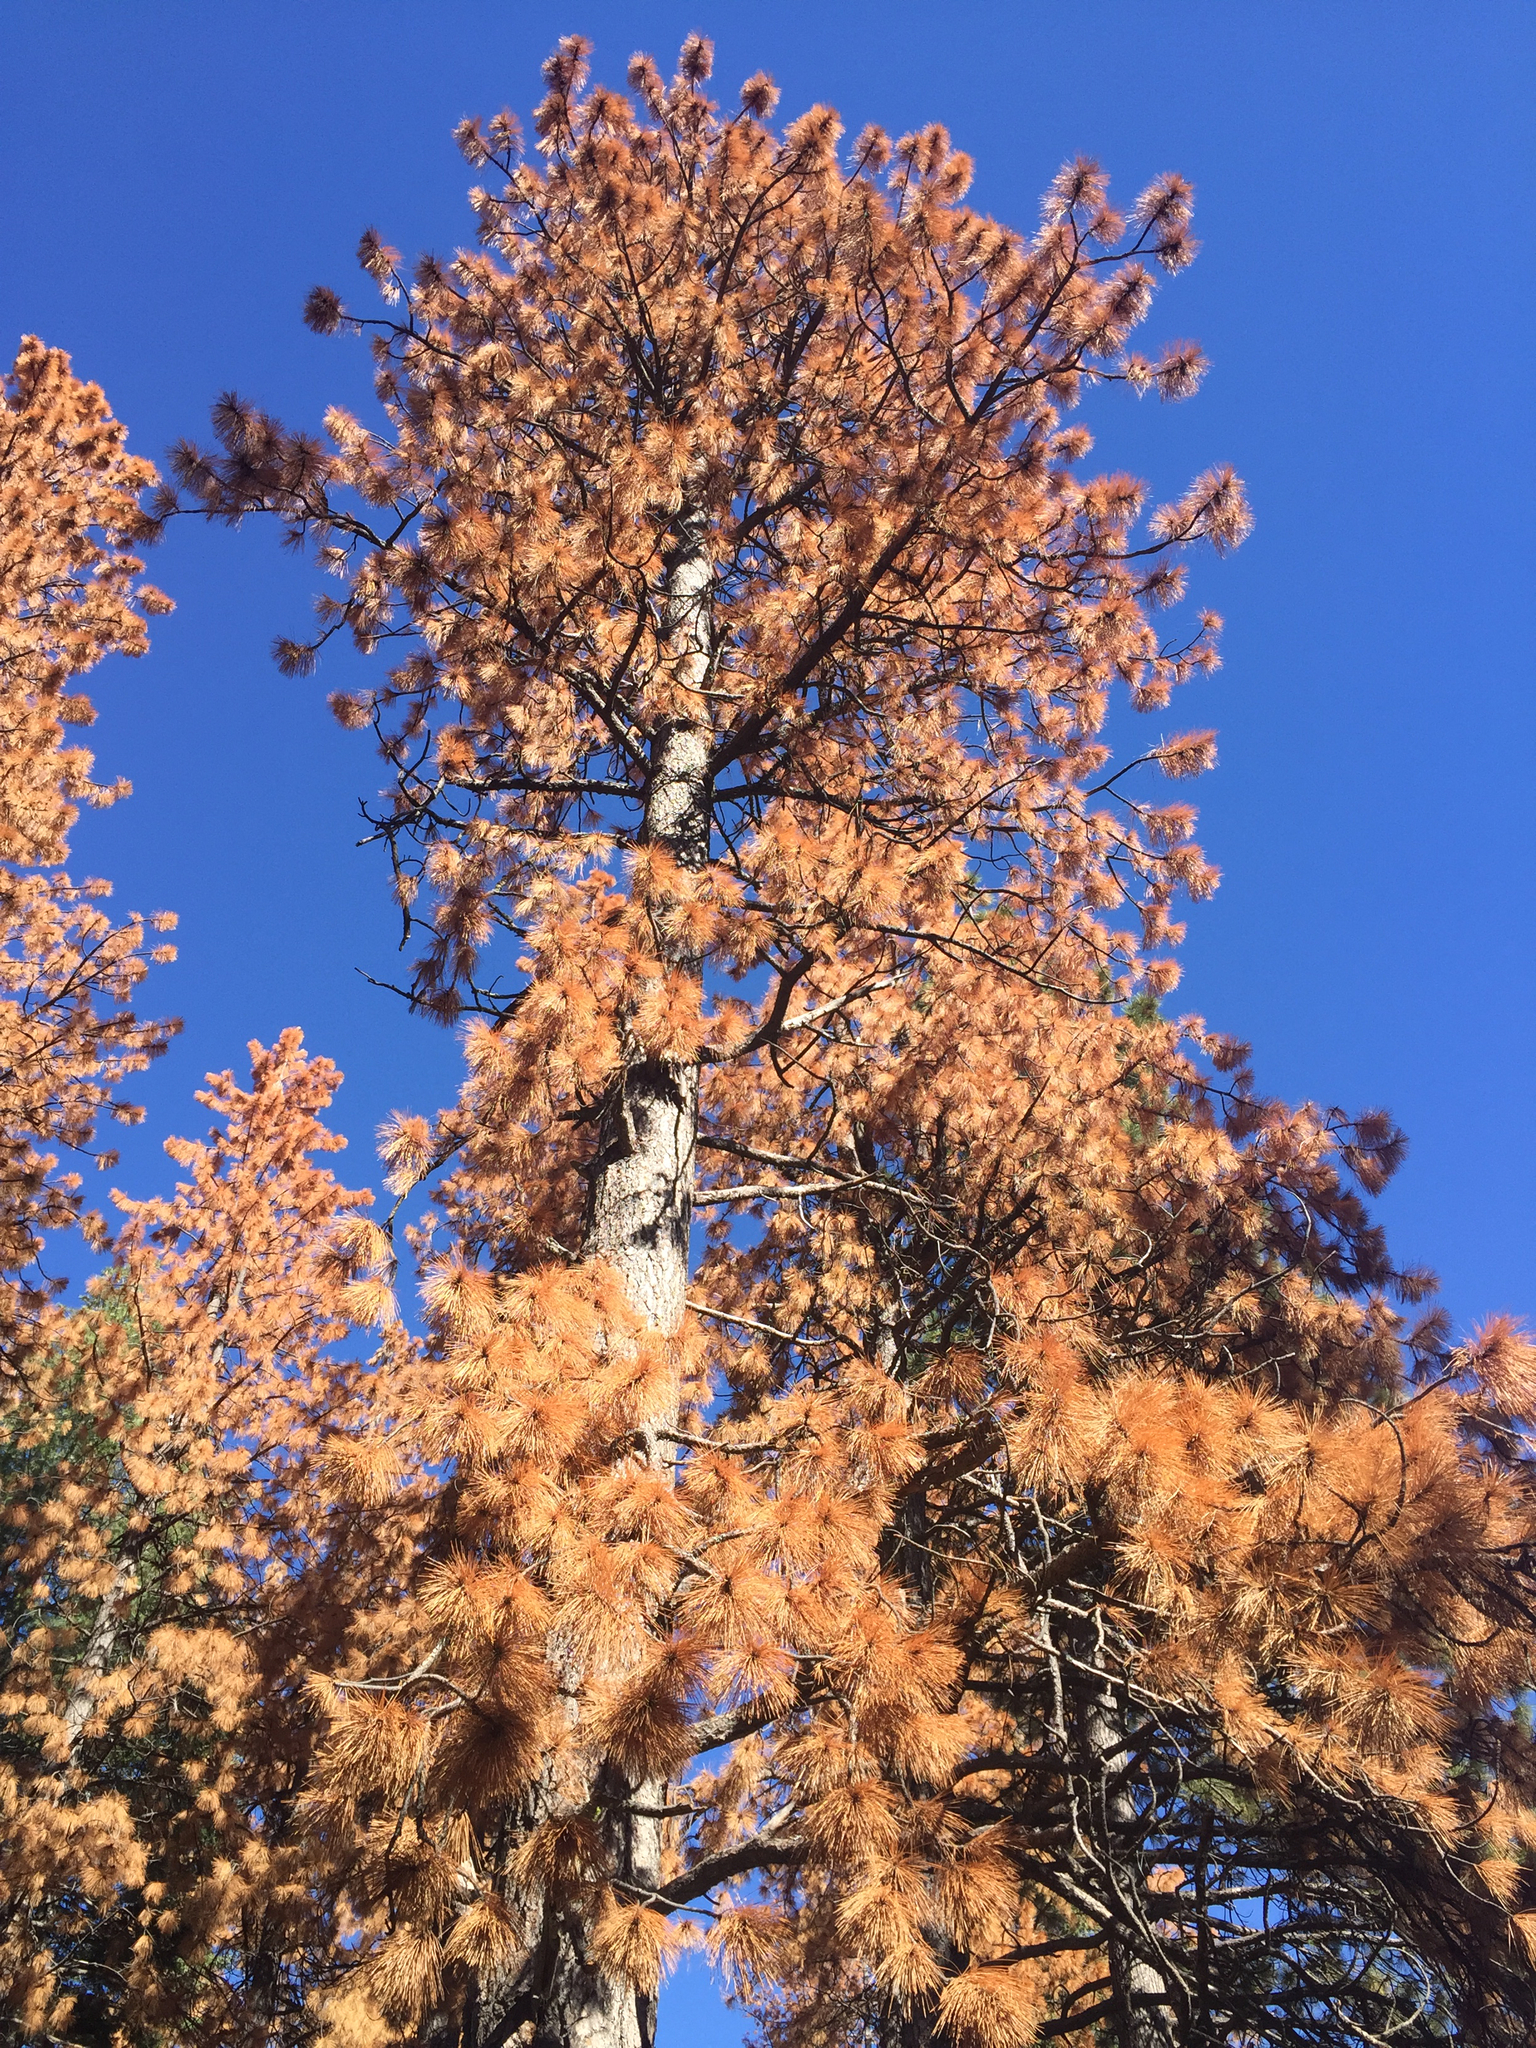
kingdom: Plantae
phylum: Tracheophyta
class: Pinopsida
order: Pinales
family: Pinaceae
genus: Pinus
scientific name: Pinus ponderosa
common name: Western yellow-pine
